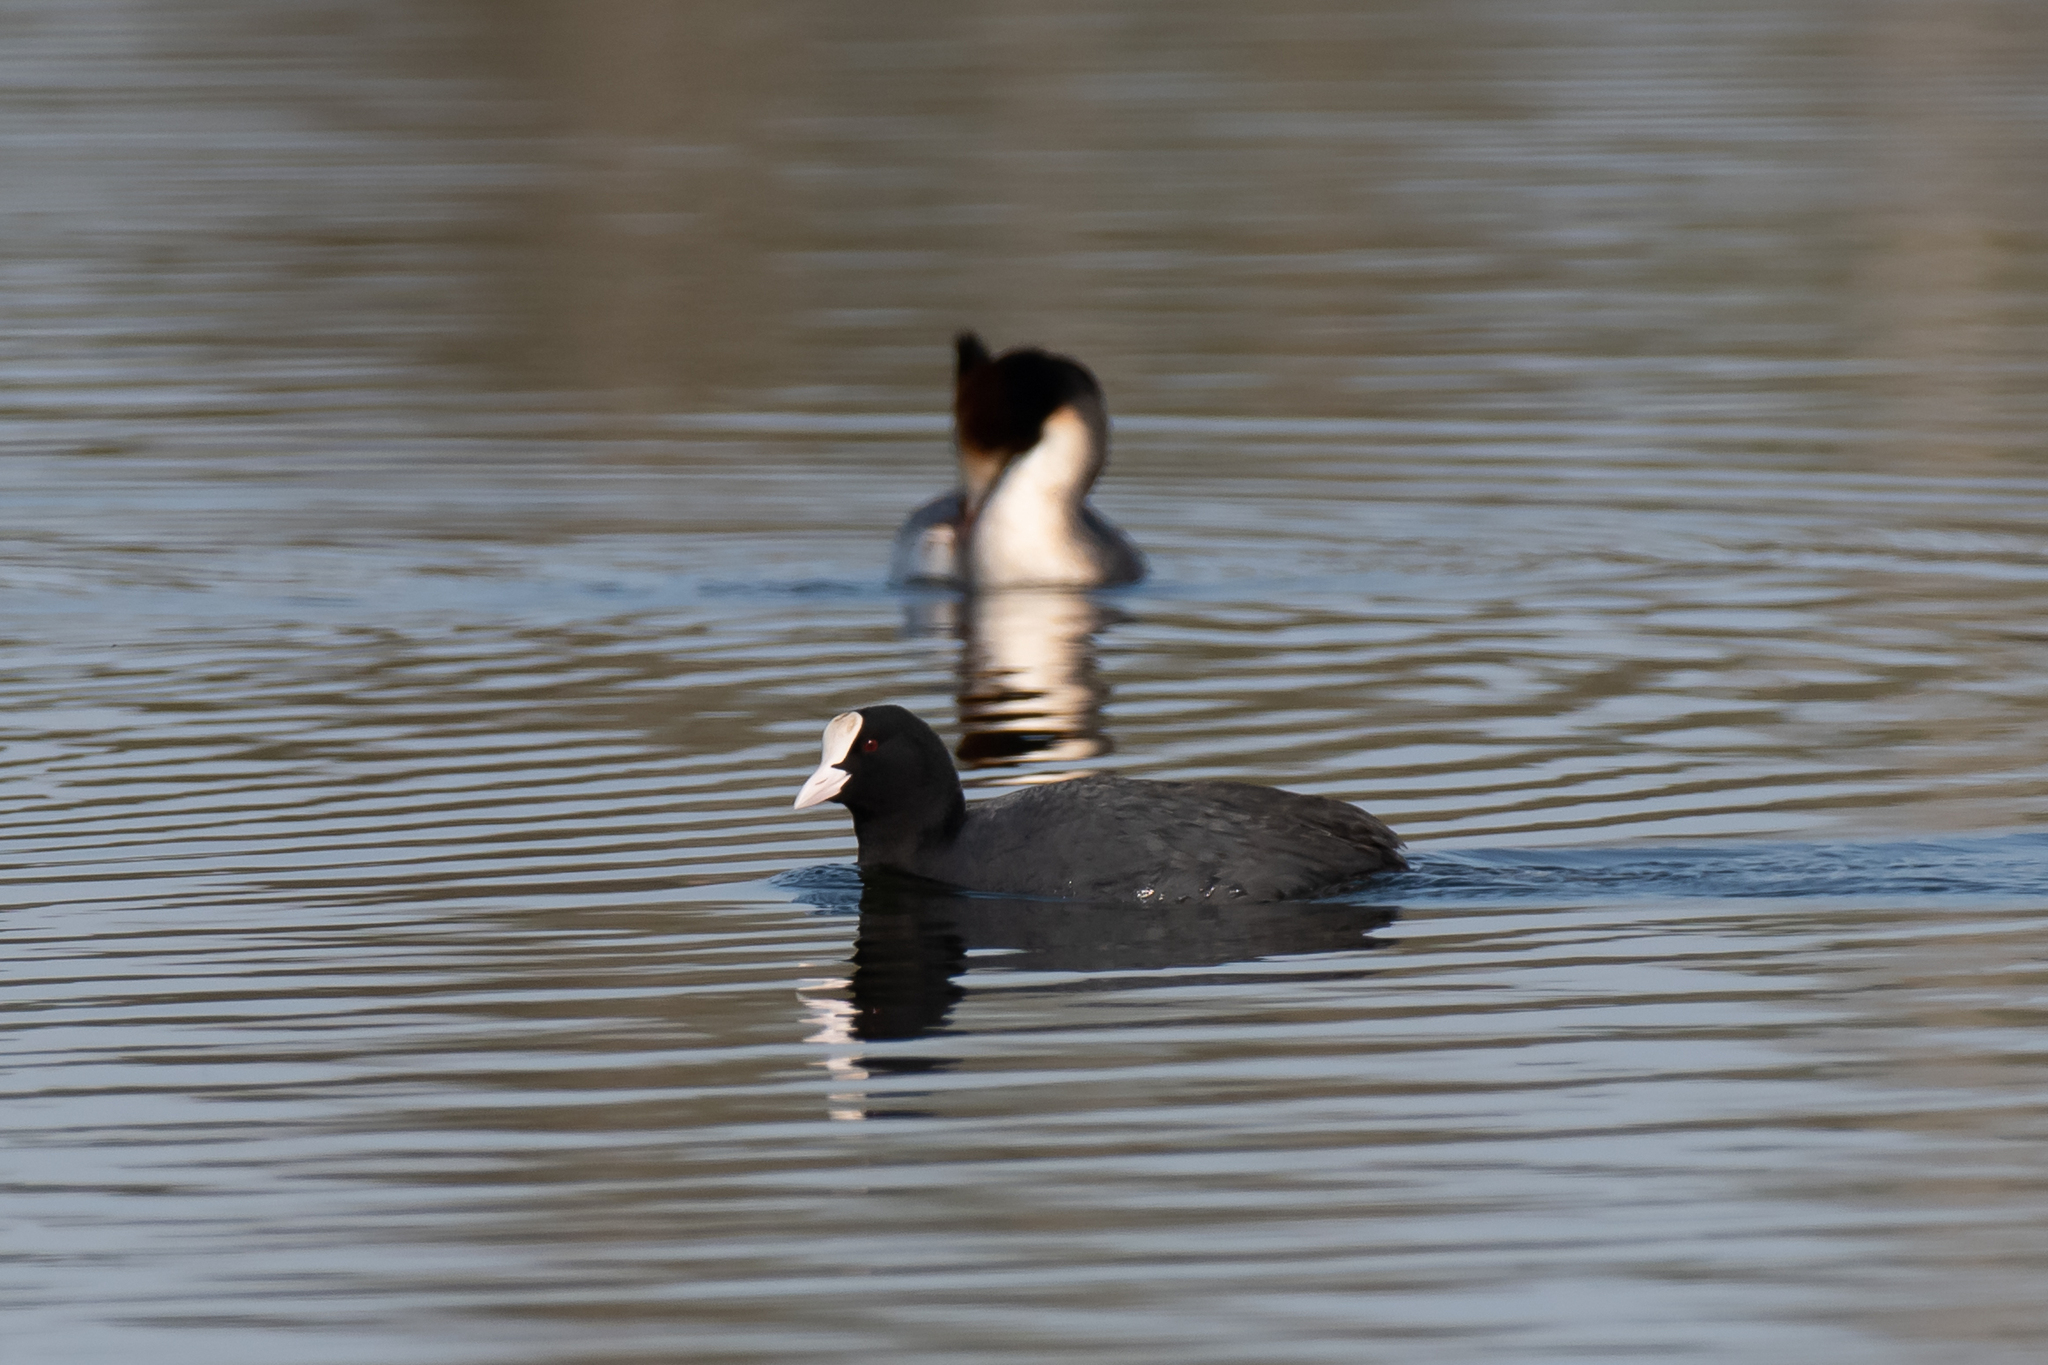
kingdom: Animalia
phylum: Chordata
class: Aves
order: Gruiformes
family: Rallidae
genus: Fulica
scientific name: Fulica atra
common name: Eurasian coot
